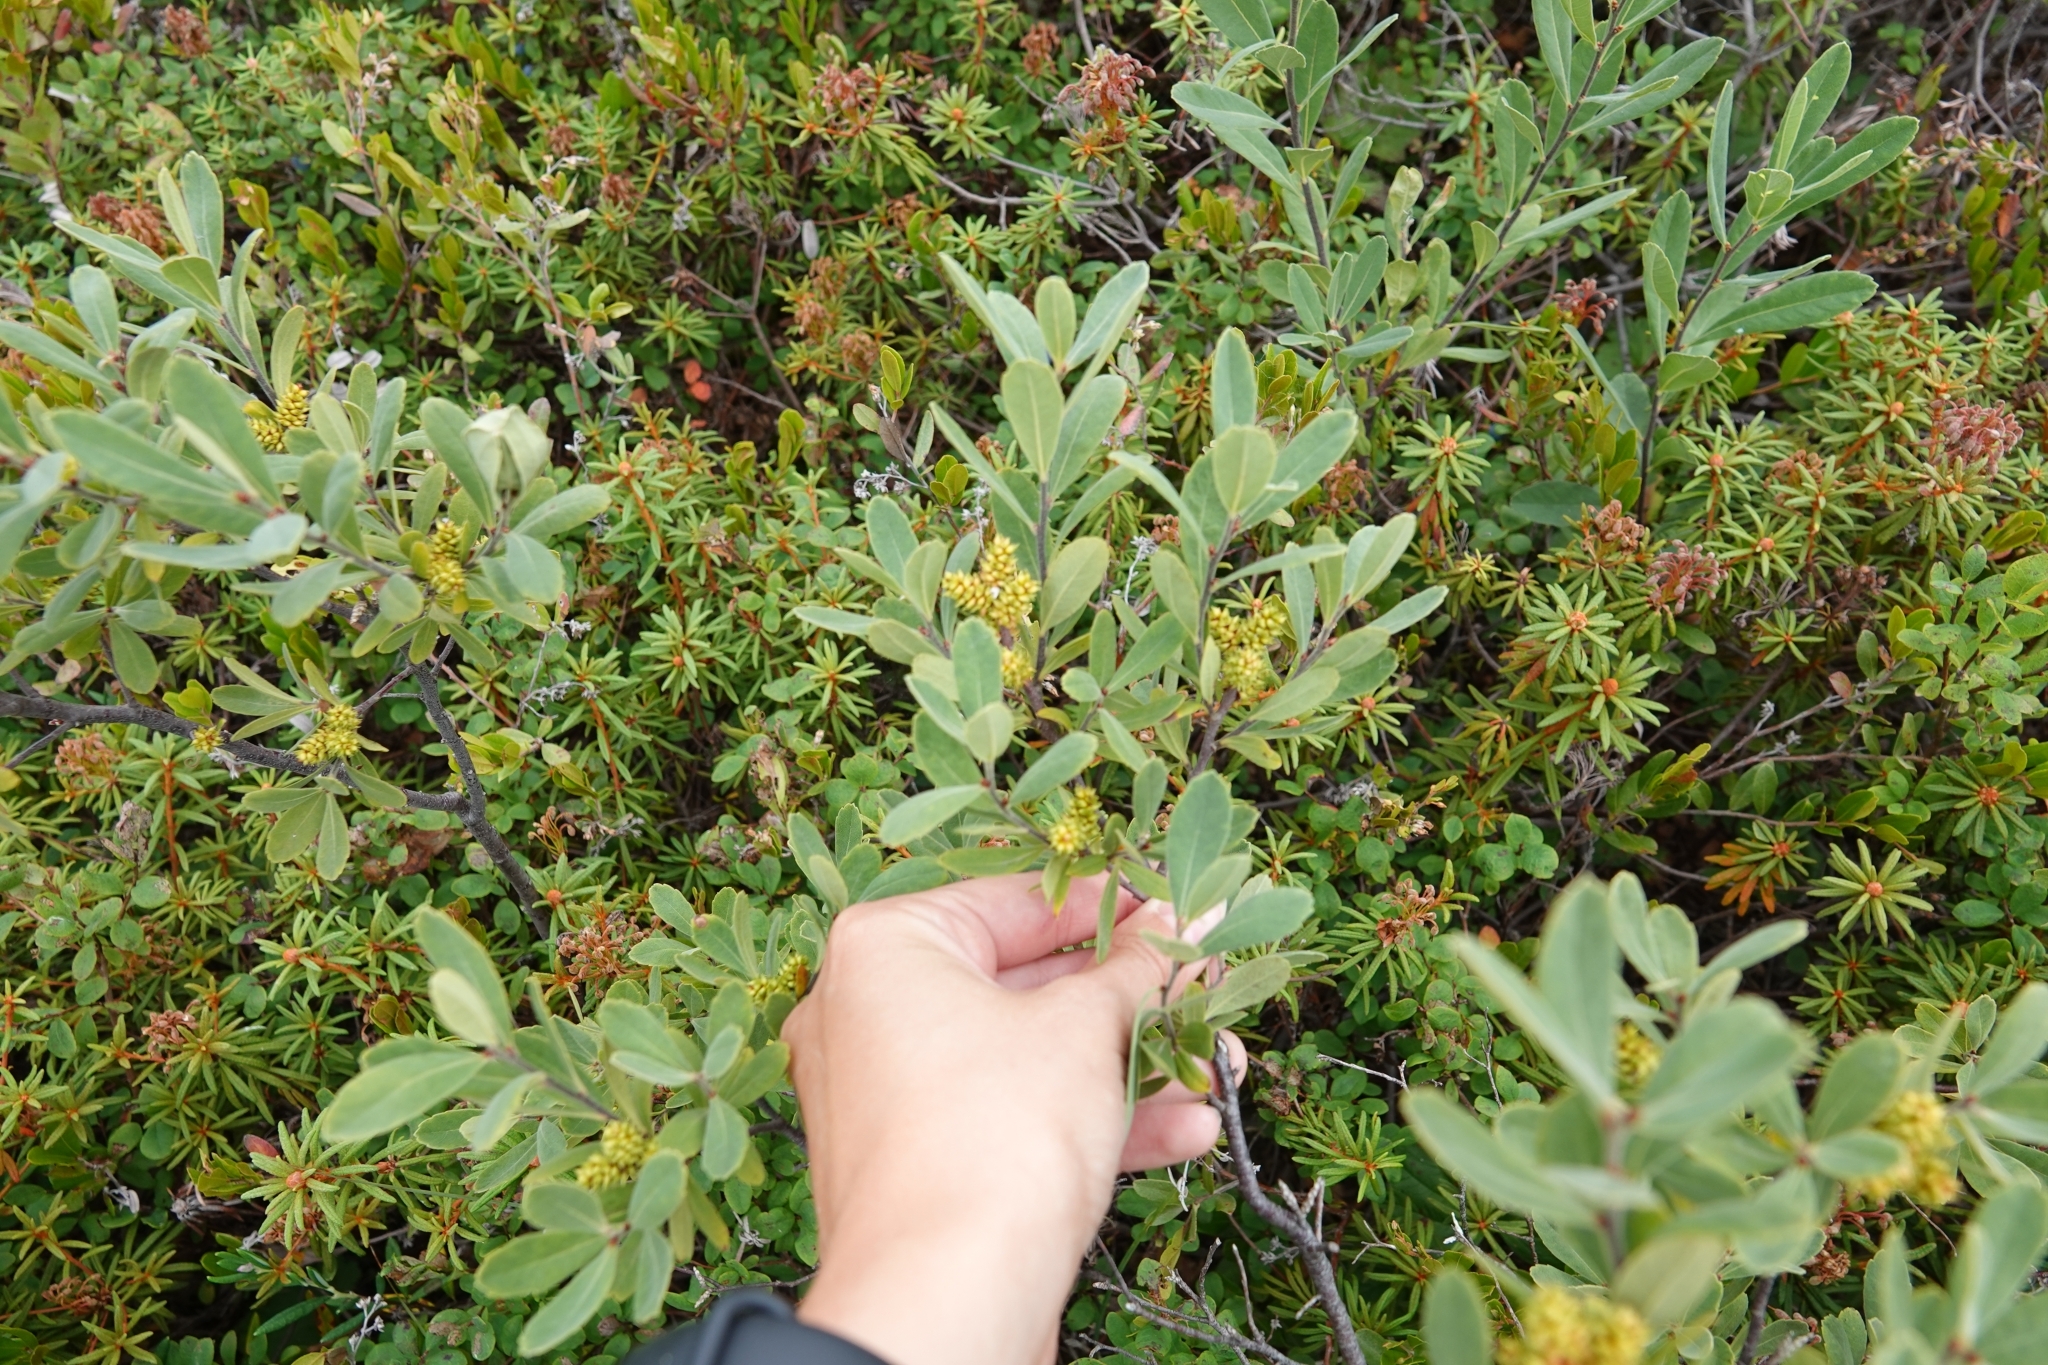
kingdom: Plantae
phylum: Tracheophyta
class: Magnoliopsida
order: Fagales
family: Myricaceae
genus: Myrica
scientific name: Myrica gale
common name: Sweet gale
